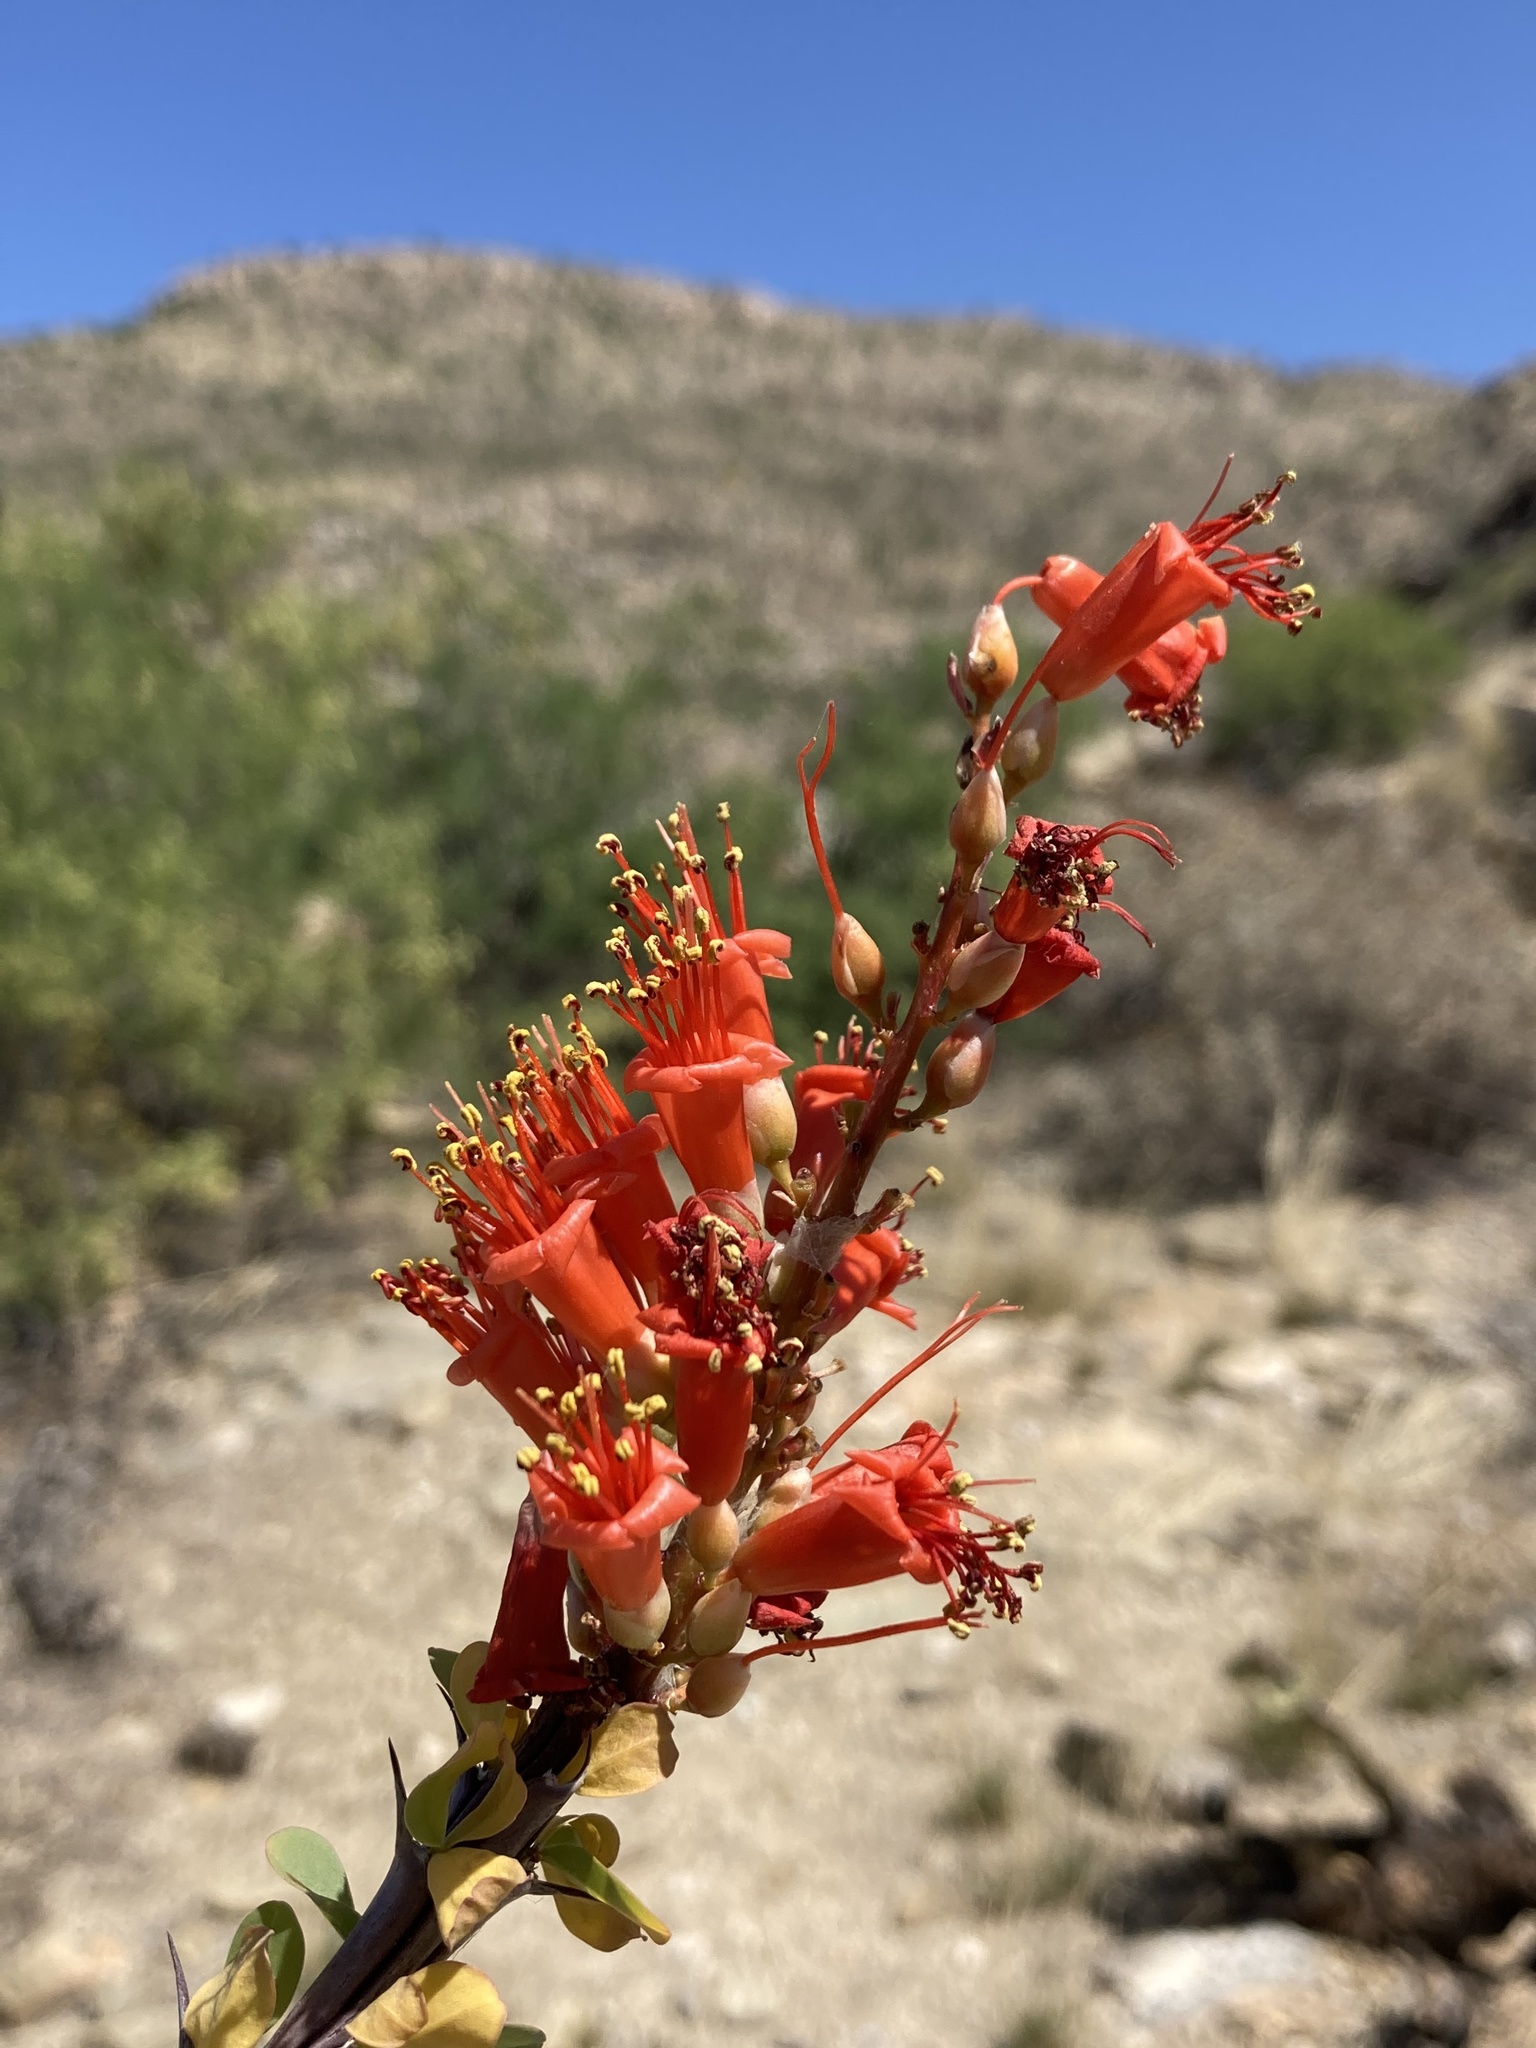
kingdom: Plantae
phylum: Tracheophyta
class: Magnoliopsida
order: Ericales
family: Fouquieriaceae
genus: Fouquieria
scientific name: Fouquieria splendens
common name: Vine-cactus
